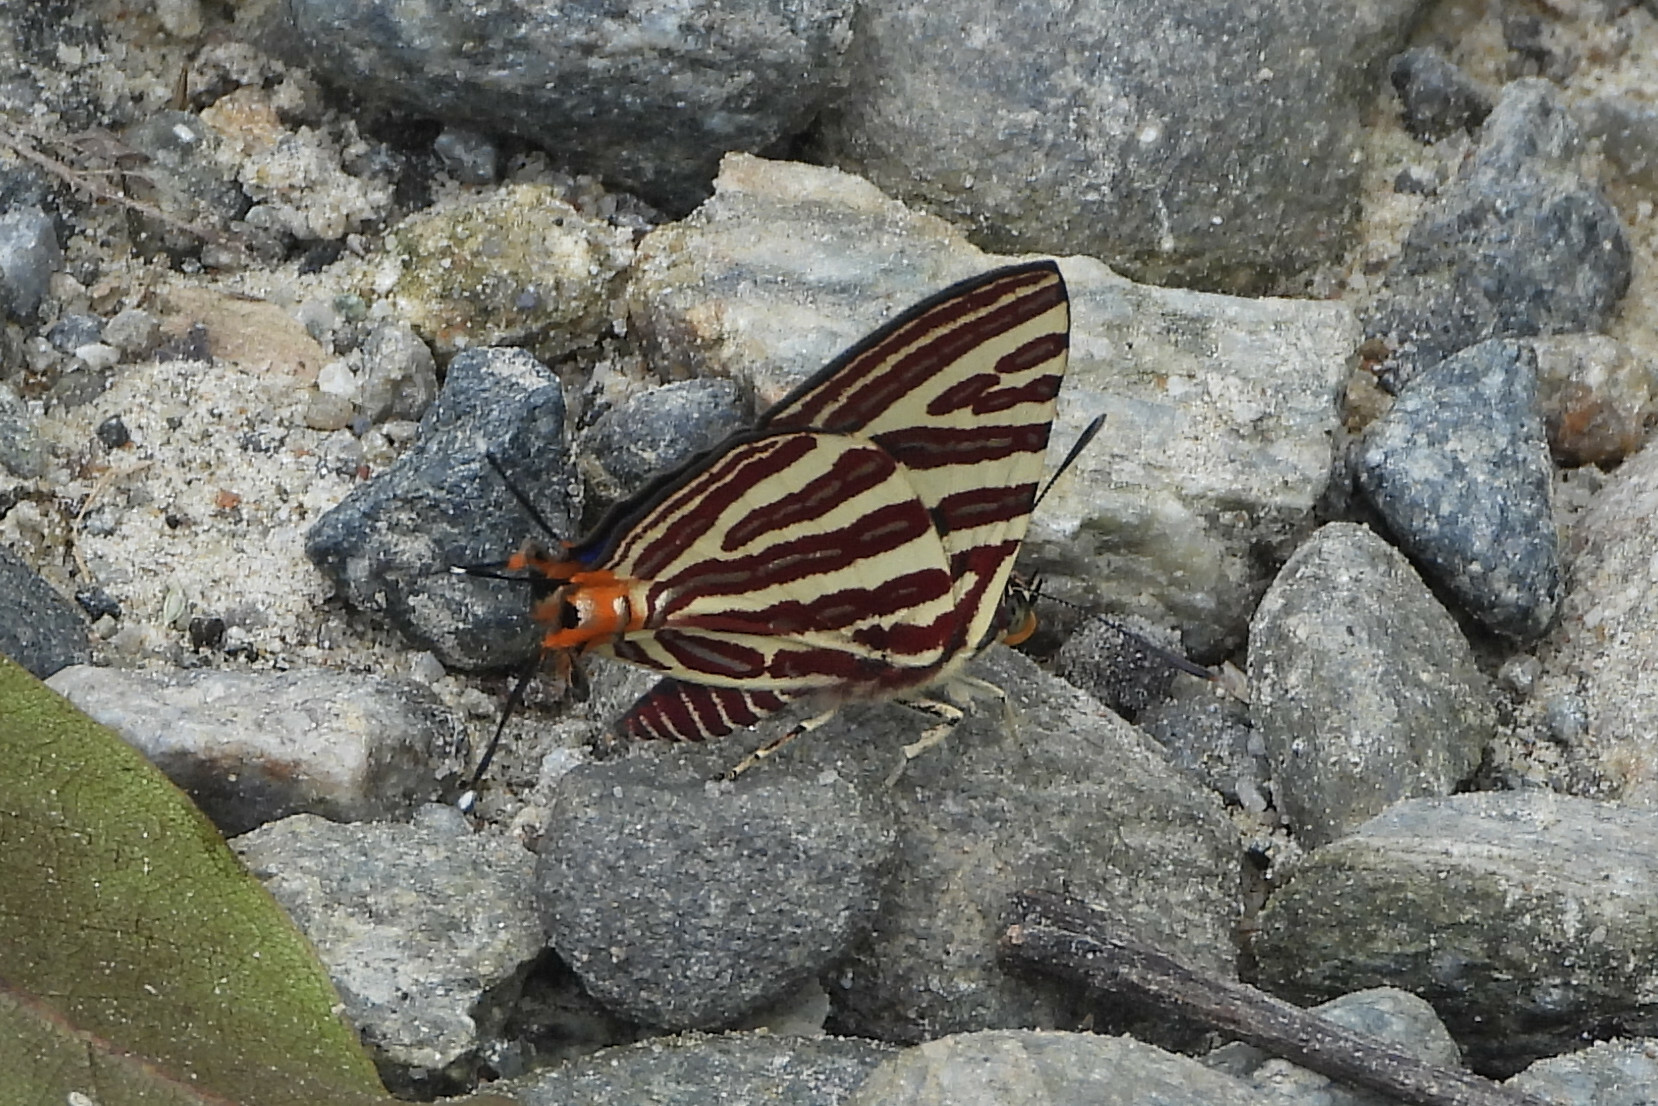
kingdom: Animalia
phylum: Arthropoda
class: Insecta
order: Lepidoptera
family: Lycaenidae
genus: Cigaritis
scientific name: Cigaritis lohita
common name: Long-banded silverline
